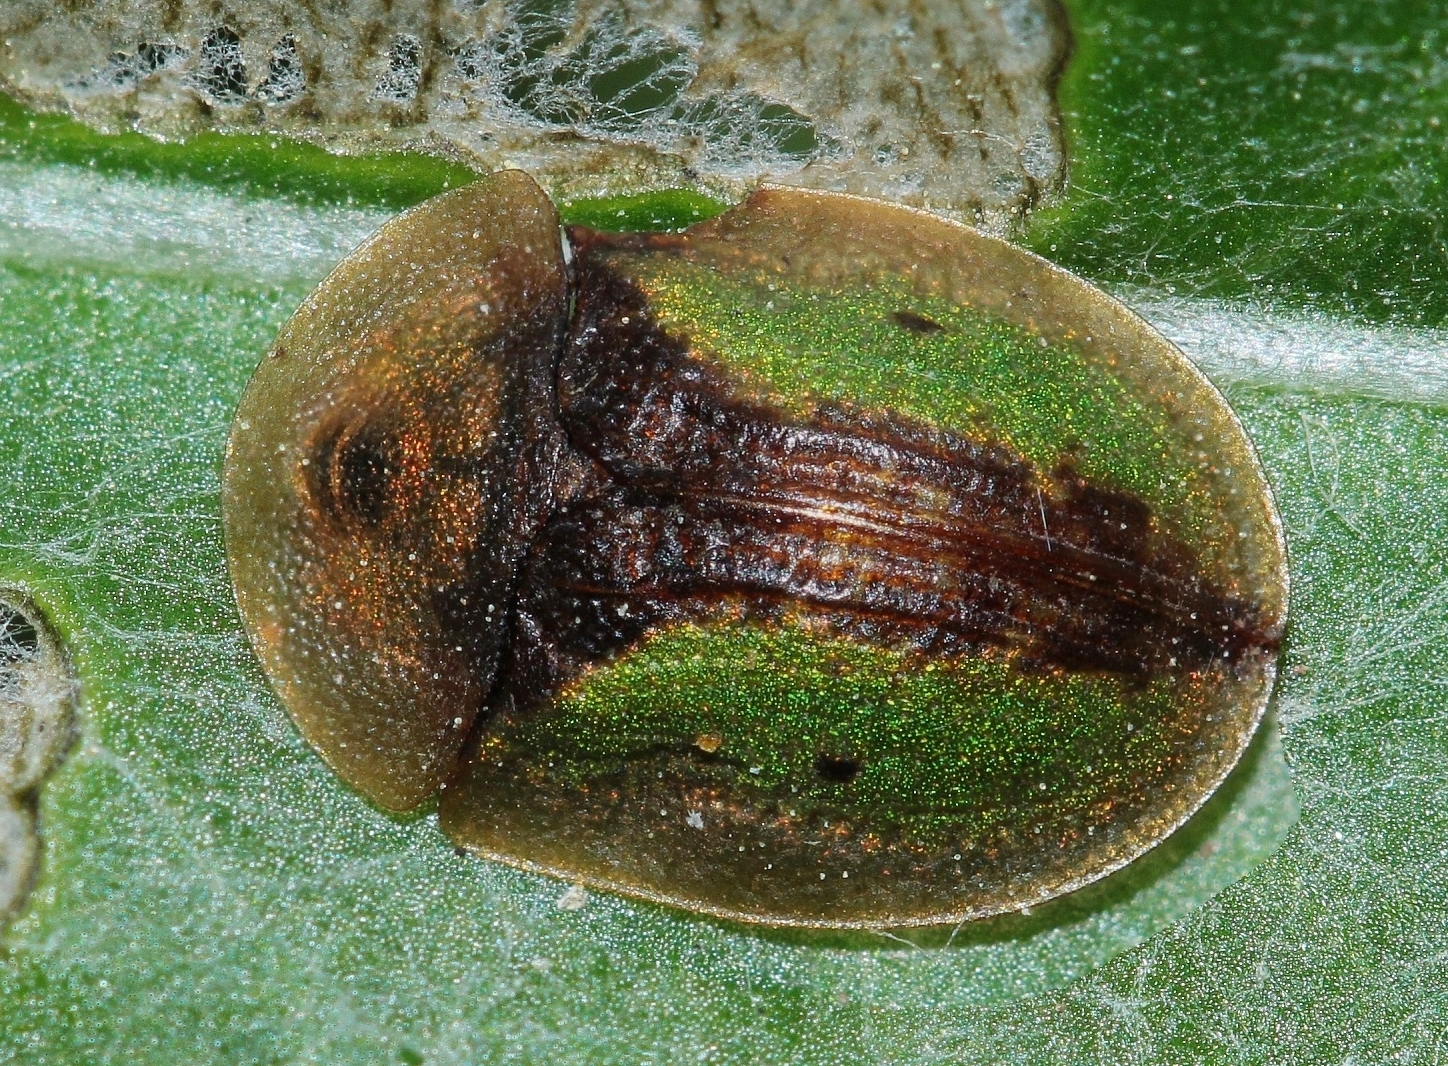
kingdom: Animalia
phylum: Arthropoda
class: Insecta
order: Coleoptera
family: Chrysomelidae
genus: Cassida
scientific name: Cassida vibex
